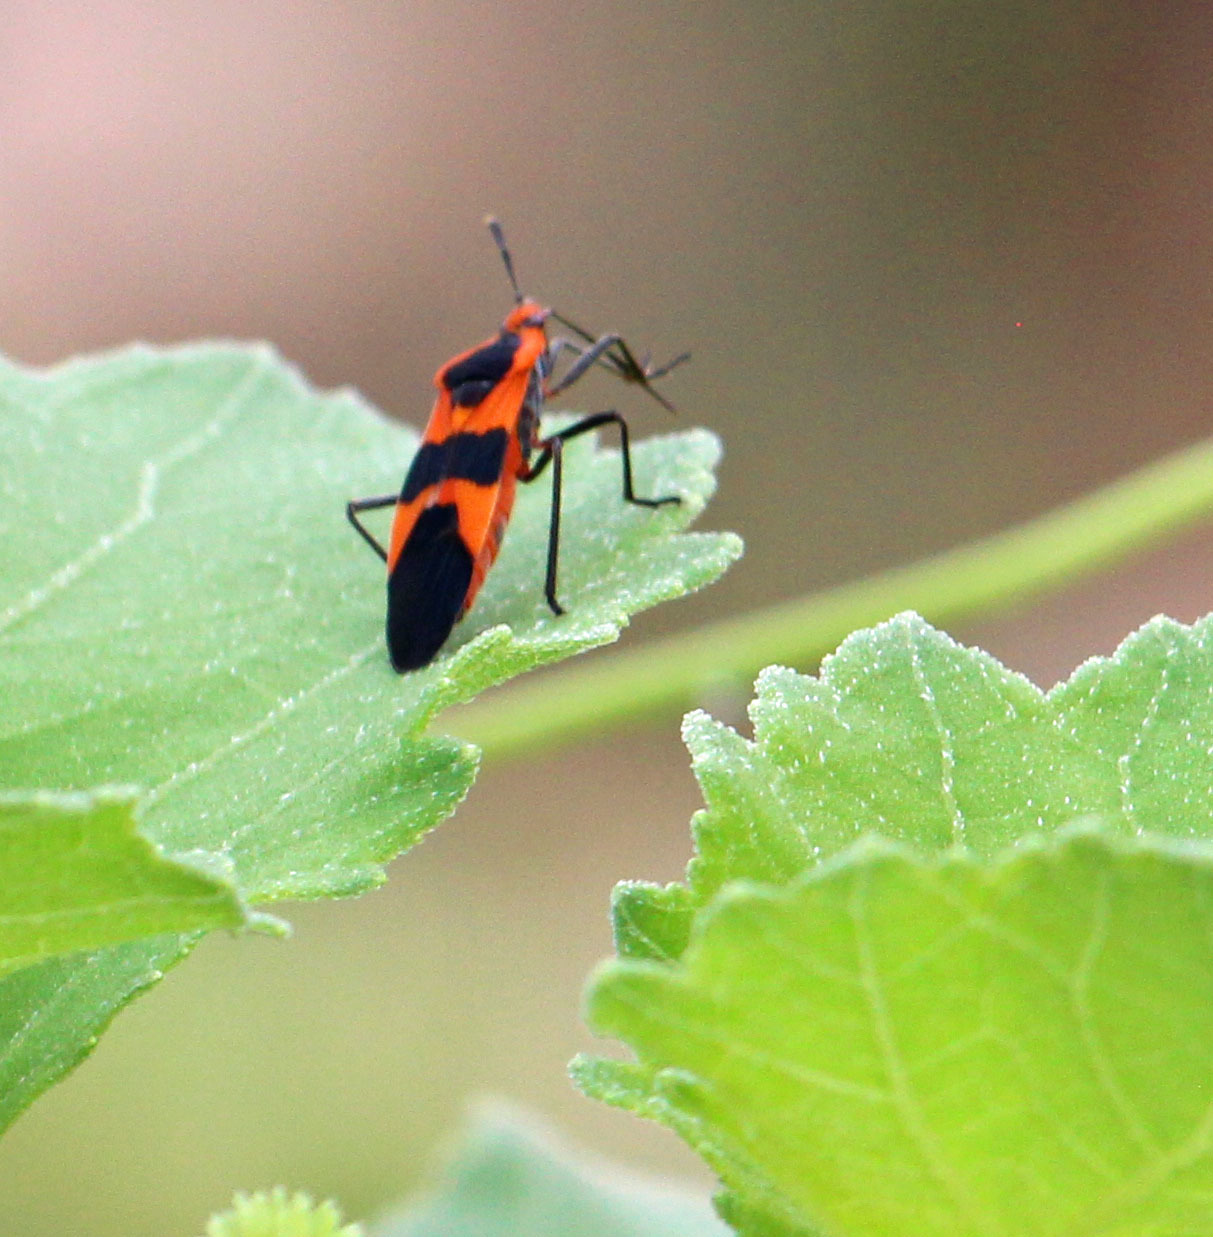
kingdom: Animalia
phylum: Arthropoda
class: Insecta
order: Hemiptera
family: Lygaeidae
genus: Oncopeltus
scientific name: Oncopeltus fasciatus
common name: Large milkweed bug
